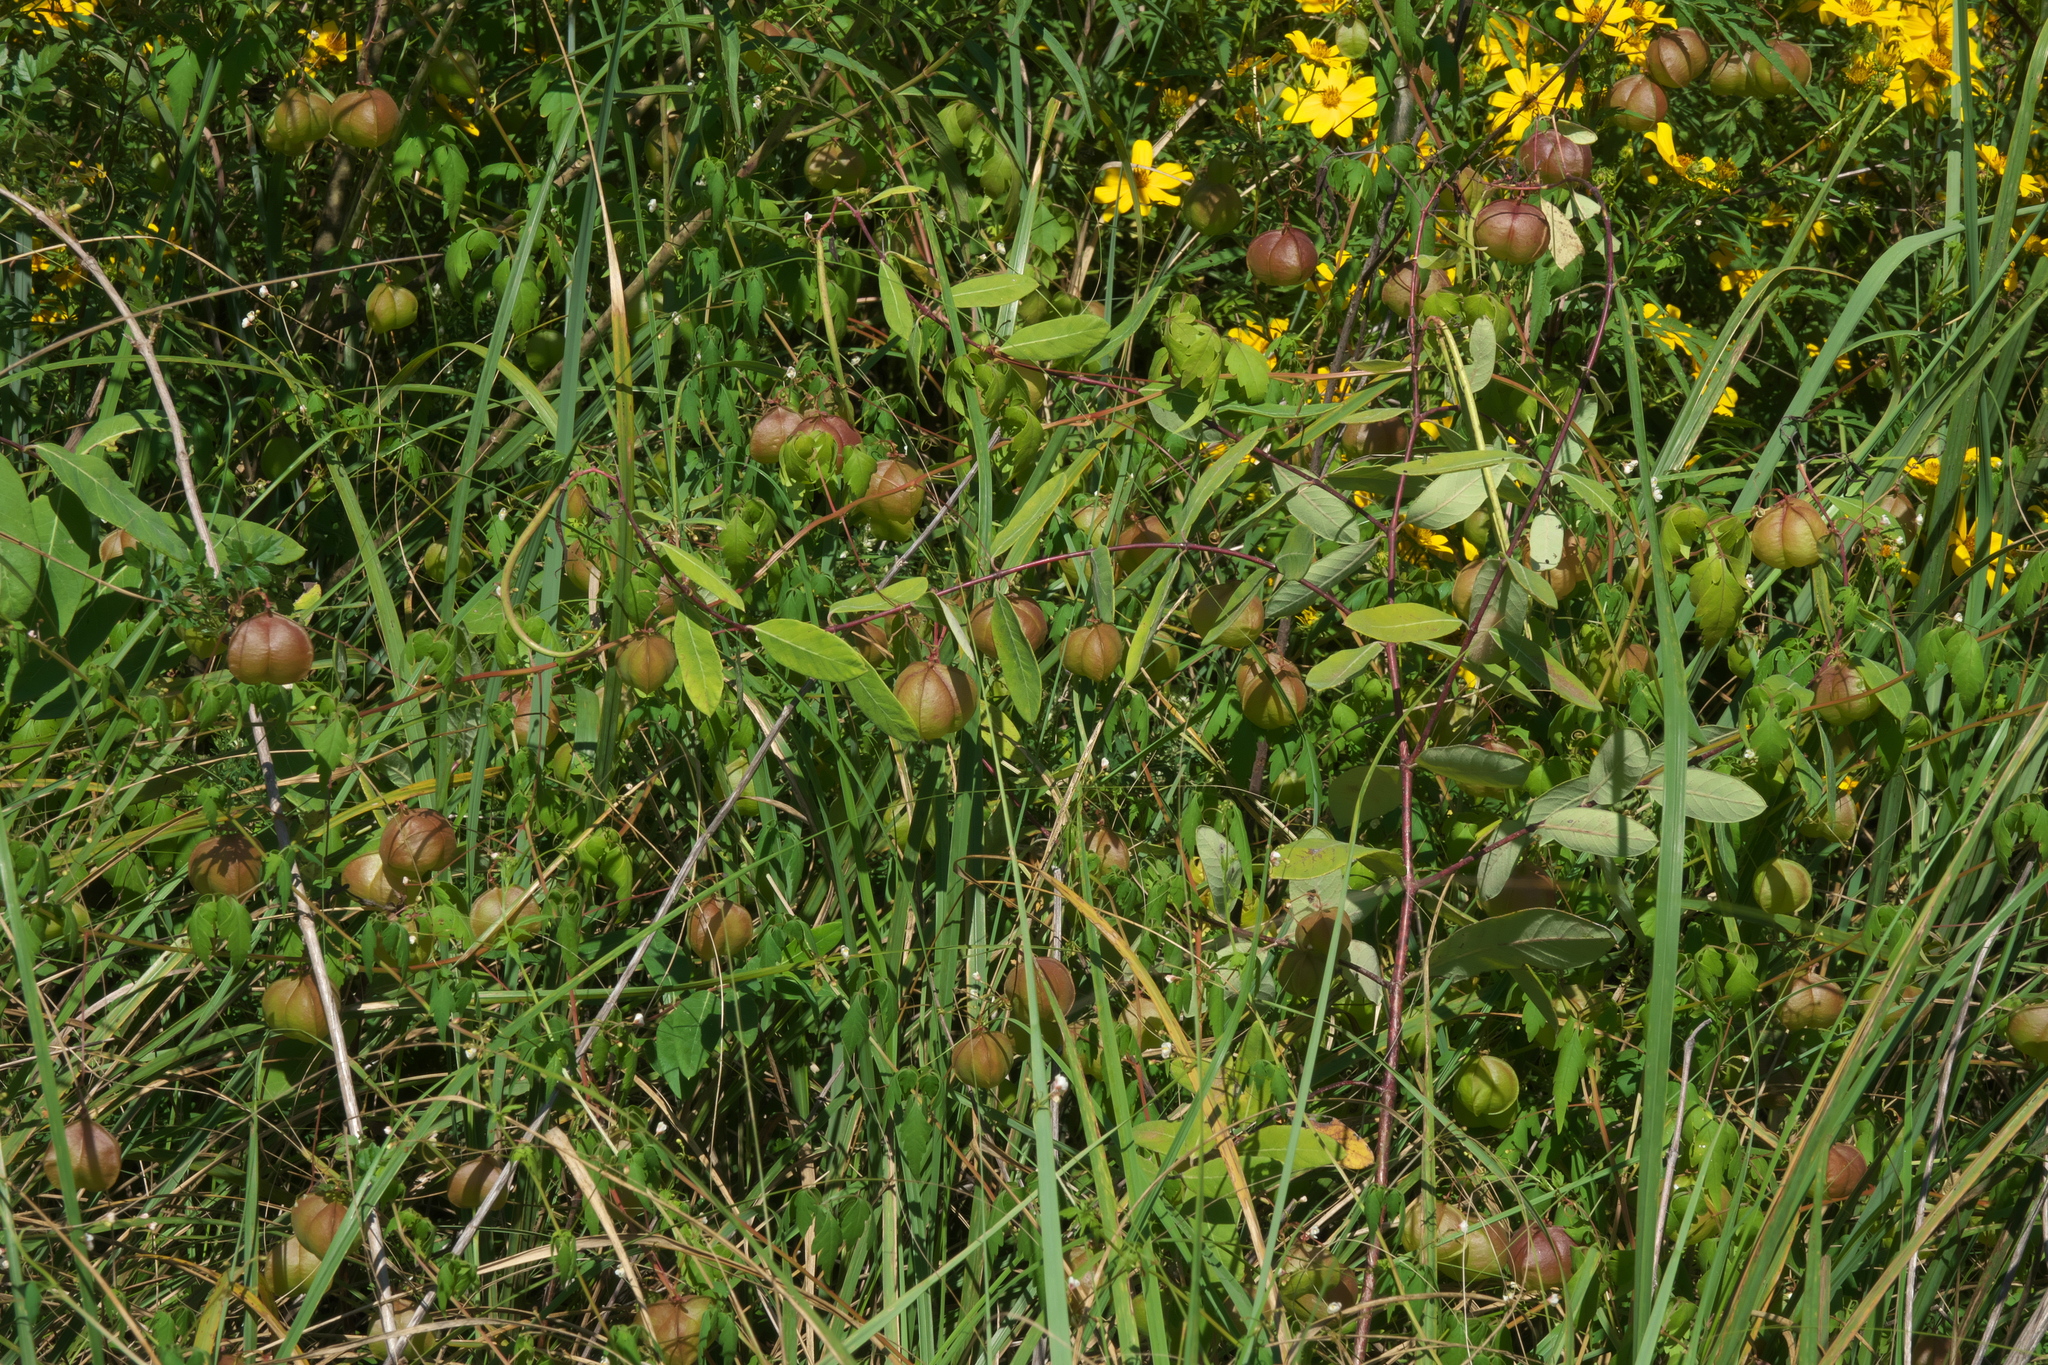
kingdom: Plantae
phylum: Tracheophyta
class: Magnoliopsida
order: Sapindales
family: Sapindaceae
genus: Cardiospermum
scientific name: Cardiospermum halicacabum
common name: Balloon vine
